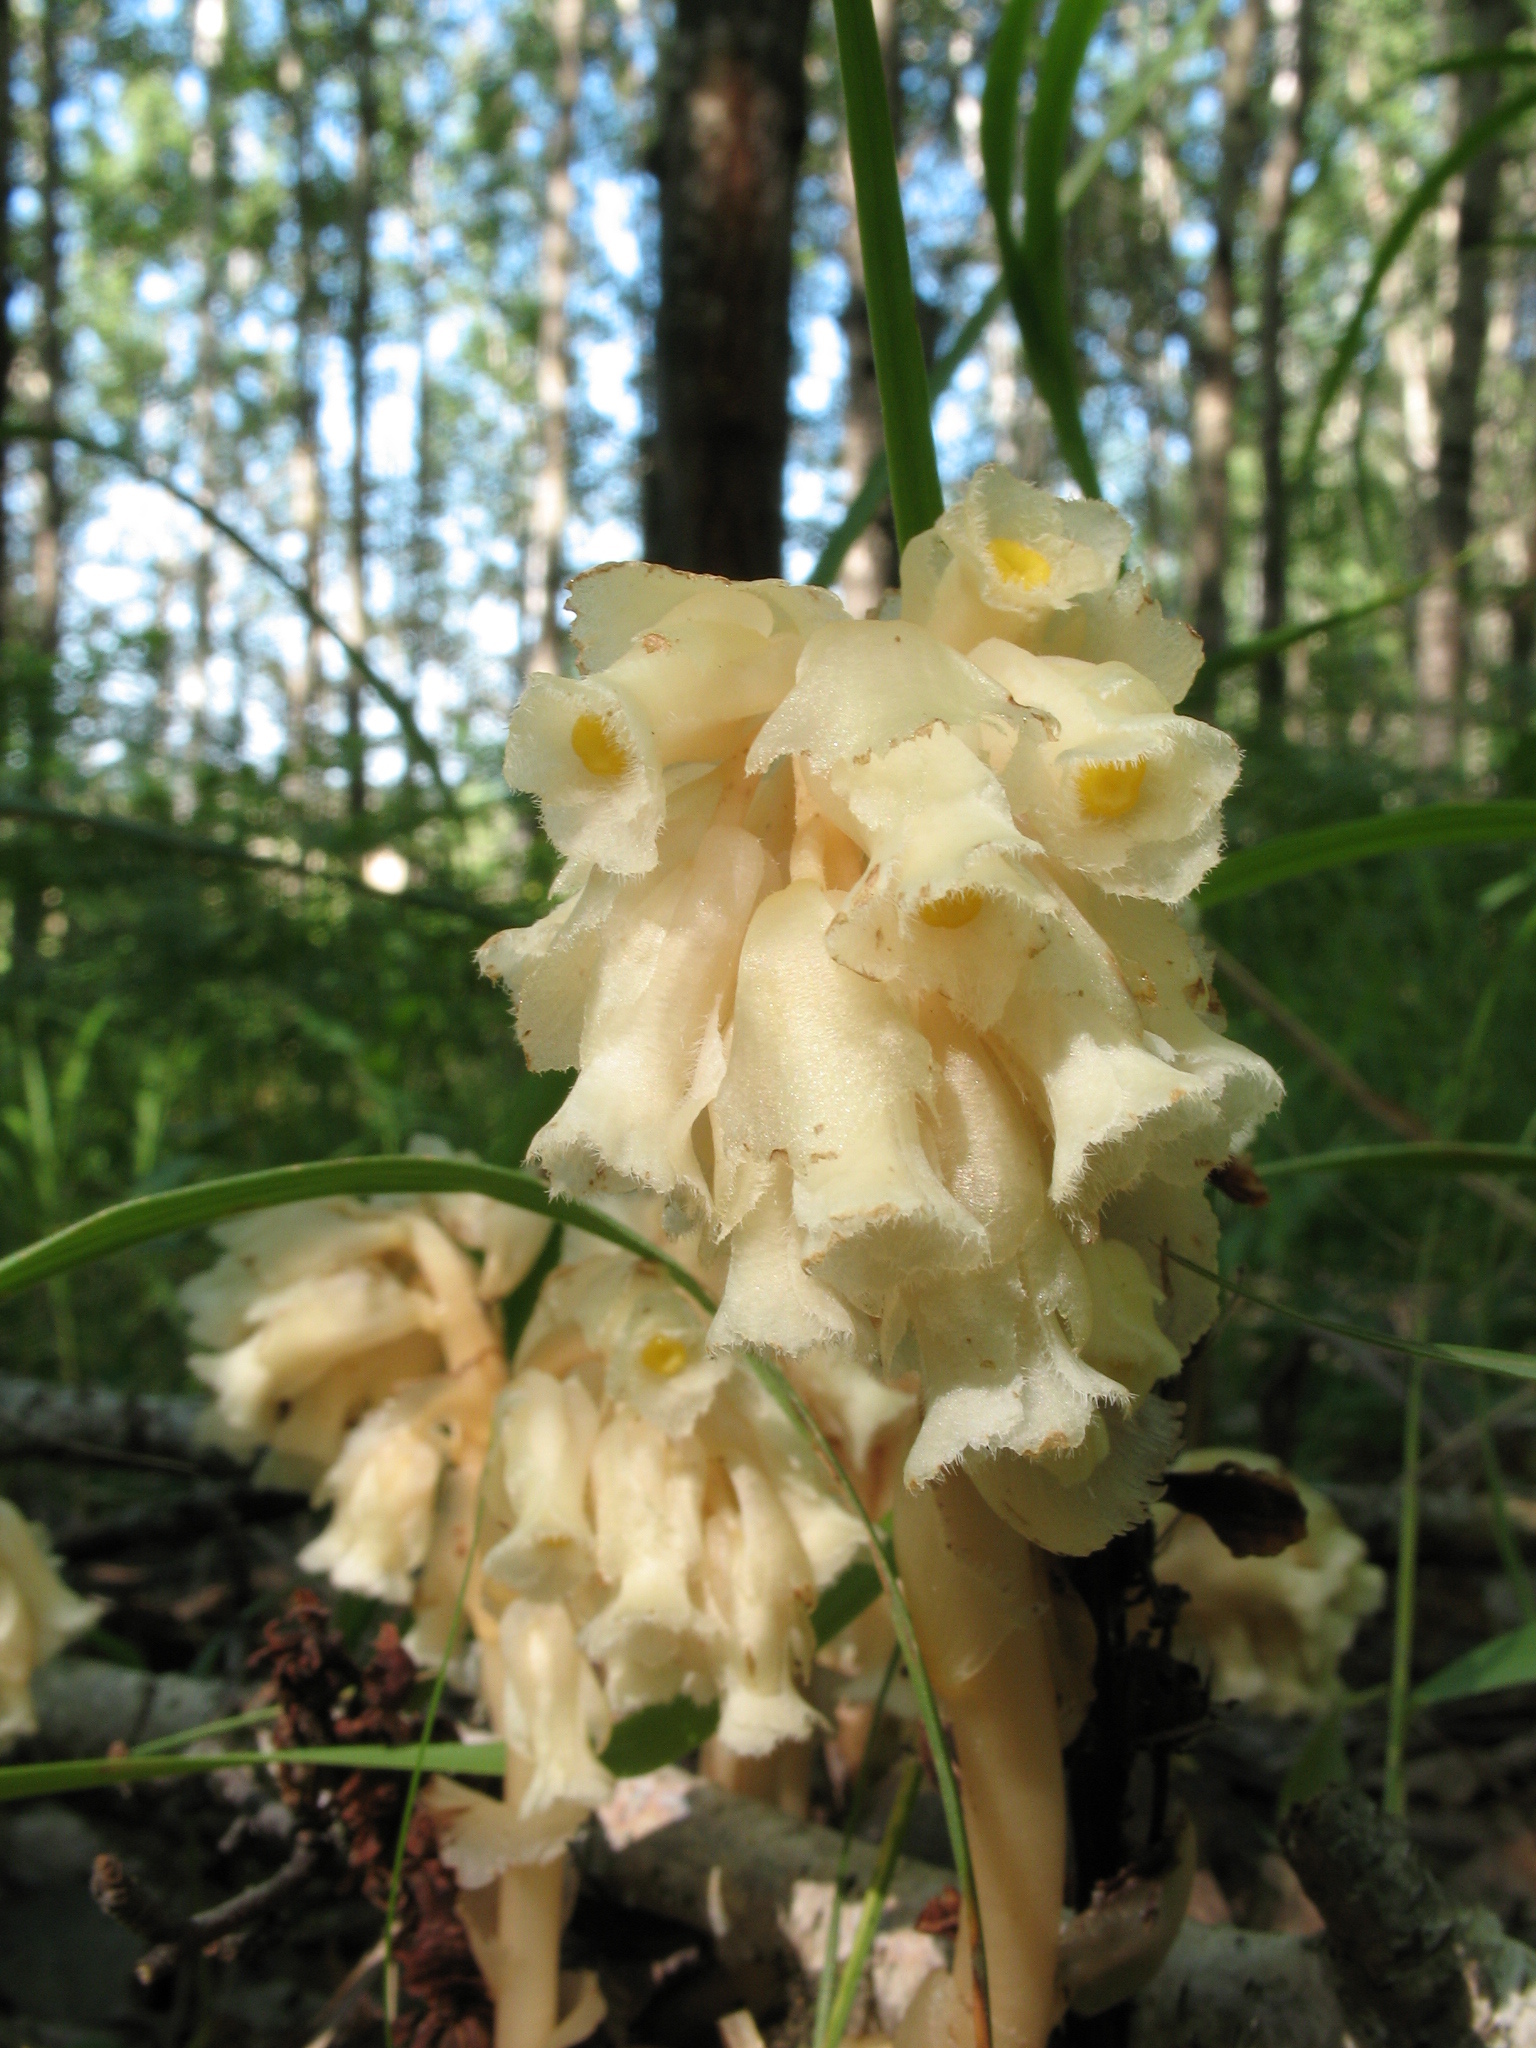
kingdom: Plantae
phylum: Tracheophyta
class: Magnoliopsida
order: Ericales
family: Ericaceae
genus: Hypopitys
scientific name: Hypopitys monotropa
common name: Yellow bird's-nest
